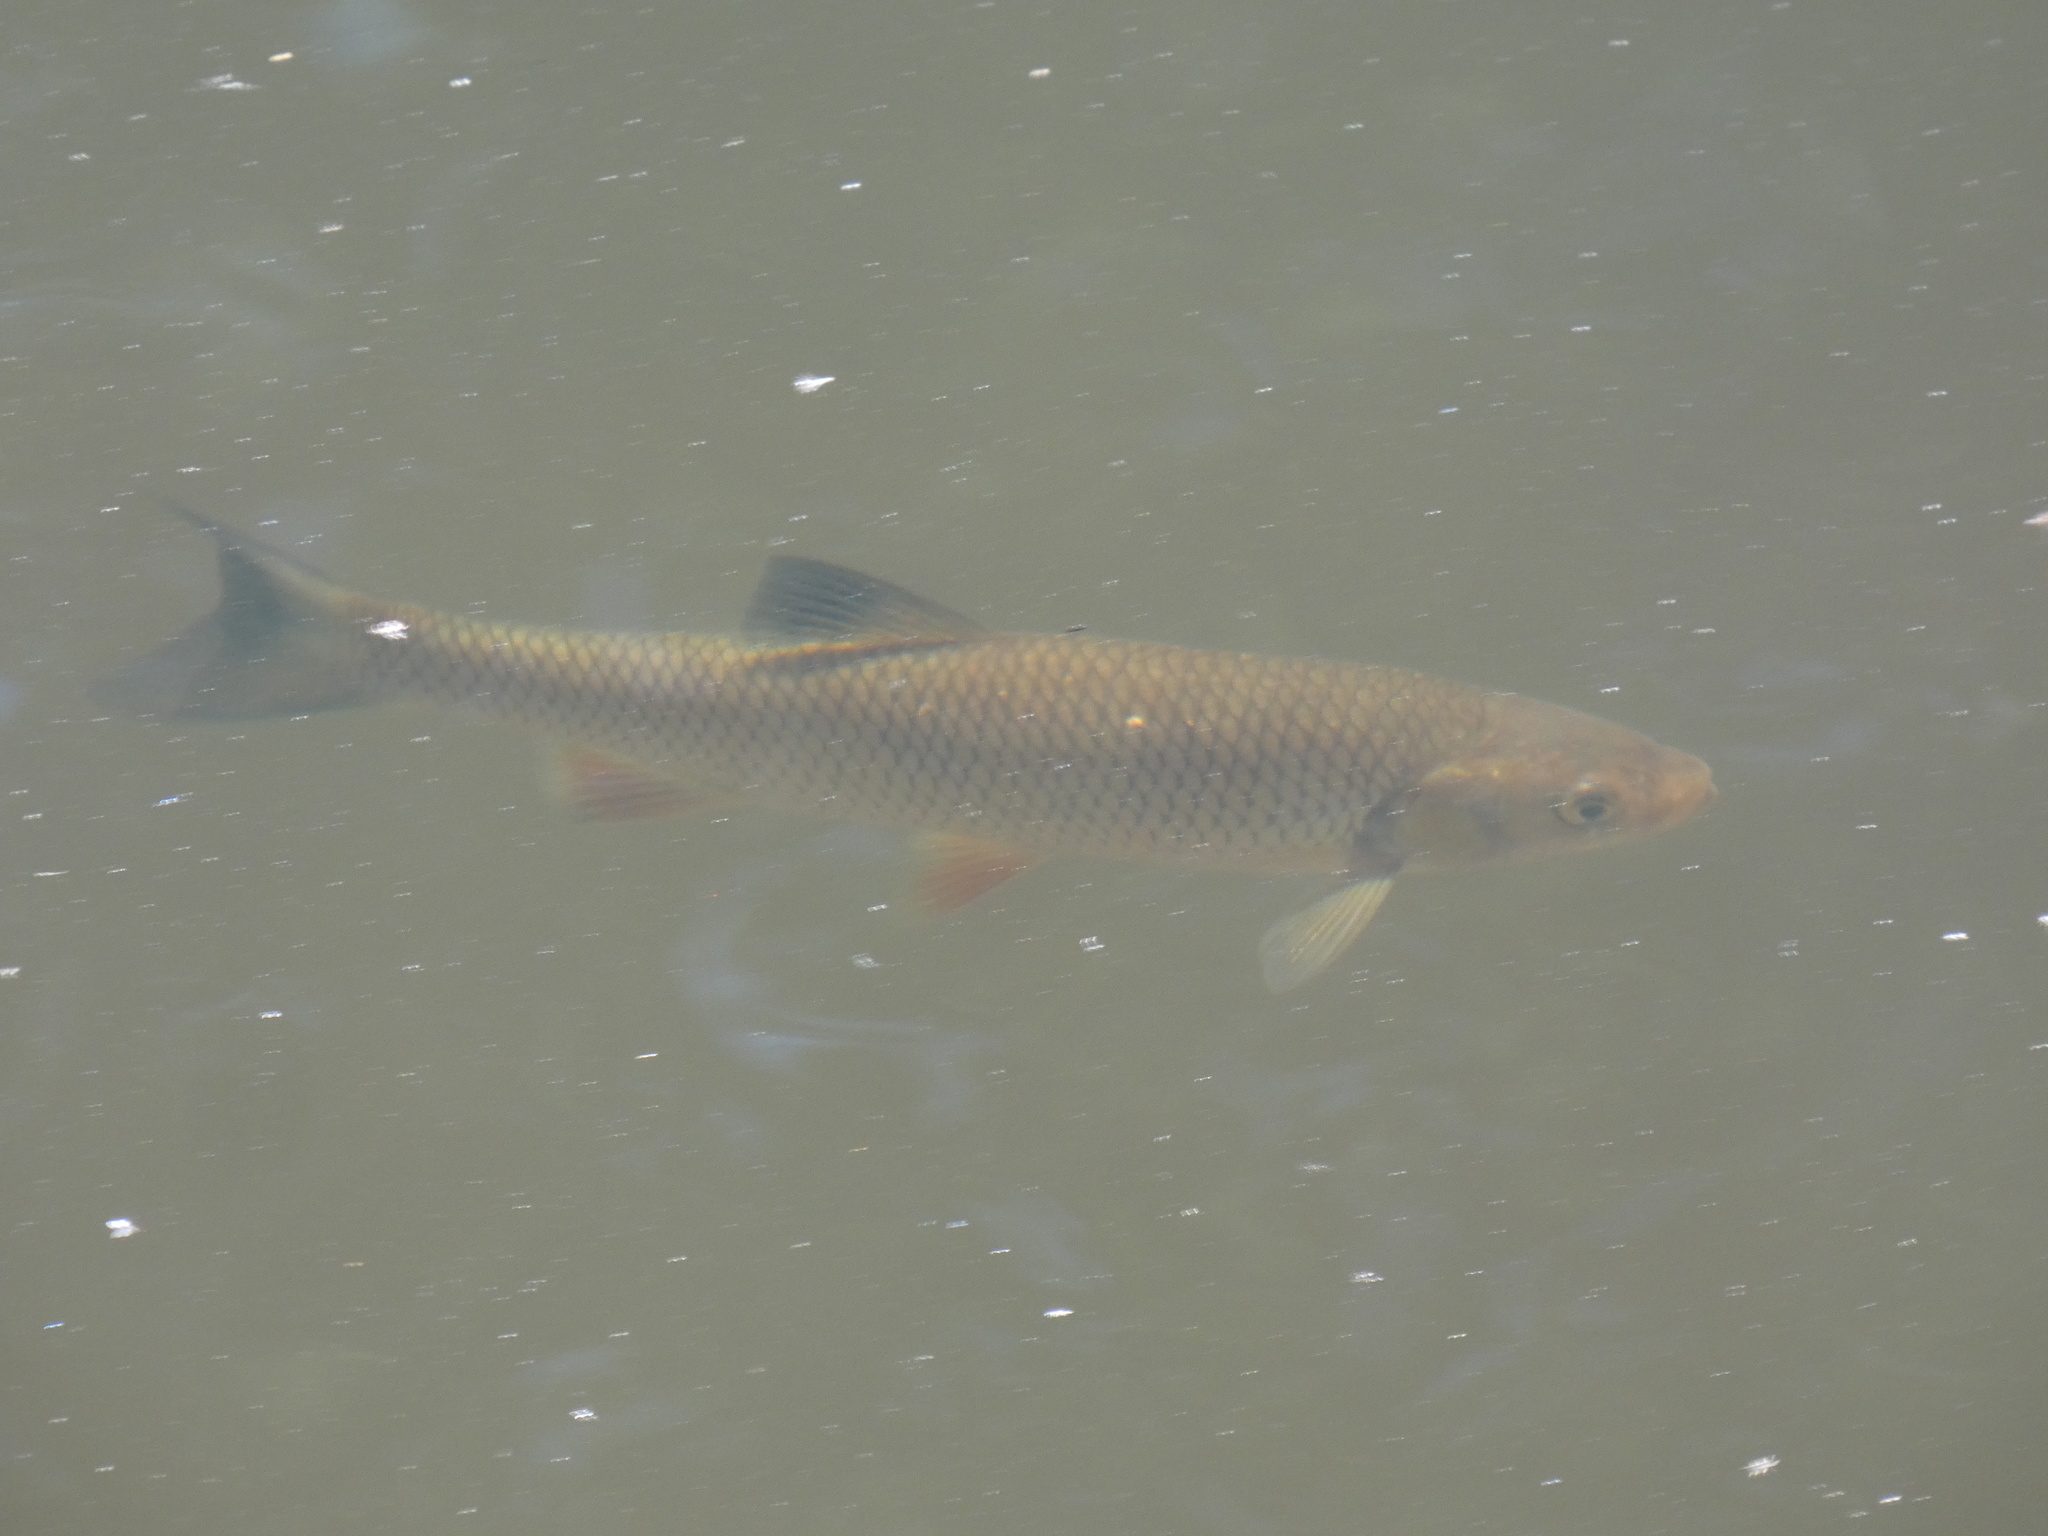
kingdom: Animalia
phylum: Chordata
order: Cypriniformes
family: Cyprinidae
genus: Squalius
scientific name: Squalius cephalus
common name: Chub
